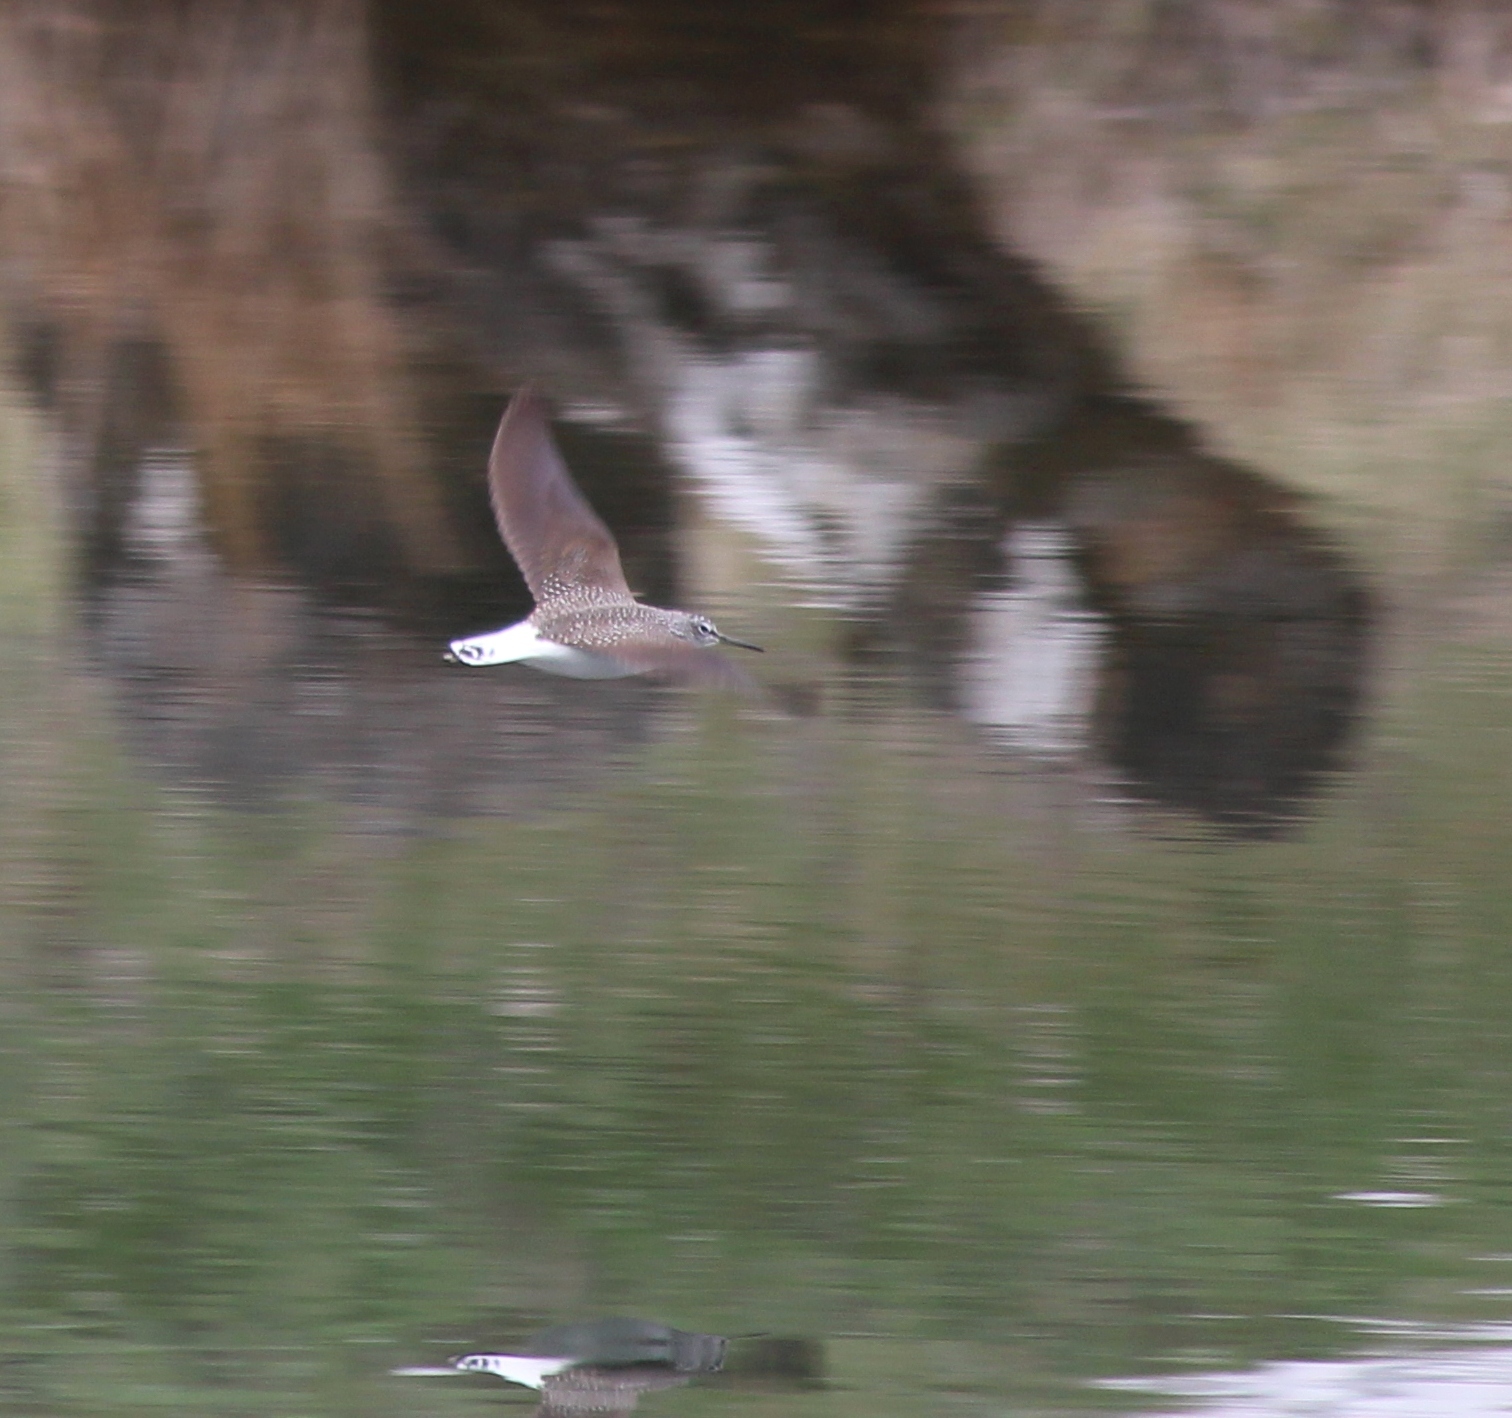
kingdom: Animalia
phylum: Chordata
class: Aves
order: Charadriiformes
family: Scolopacidae
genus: Tringa
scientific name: Tringa ochropus
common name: Green sandpiper
